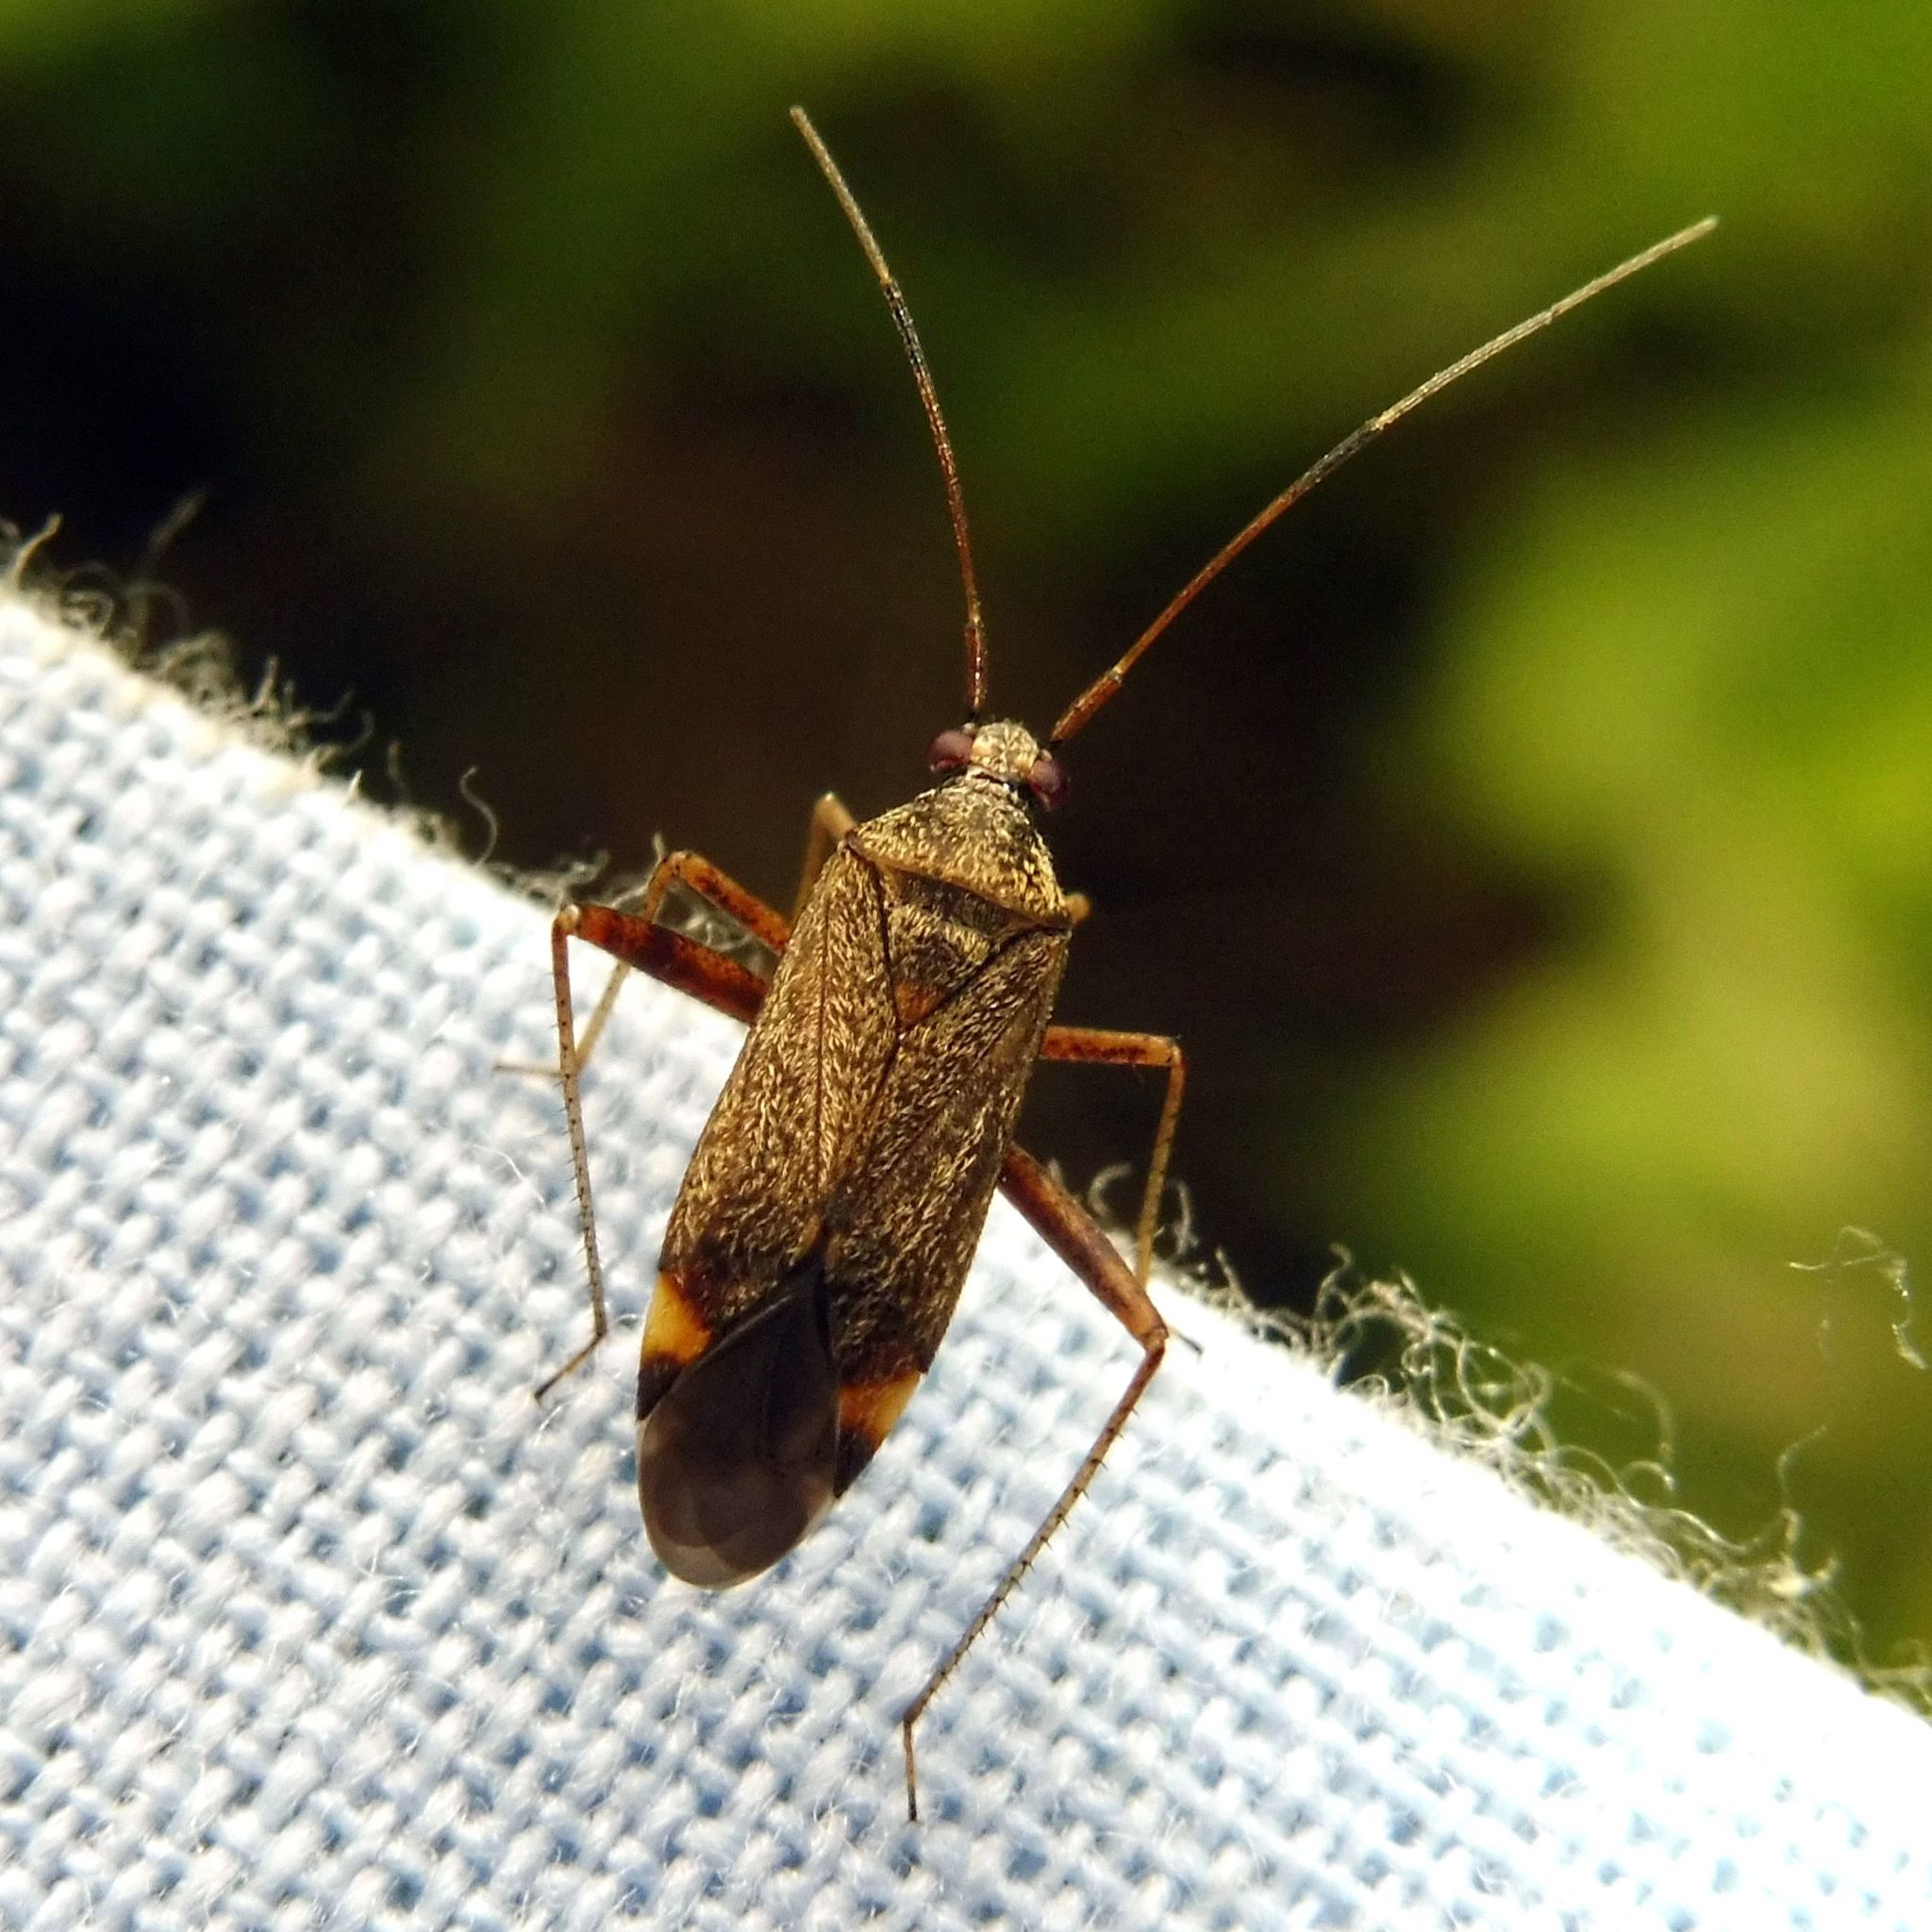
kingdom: Animalia
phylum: Arthropoda
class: Insecta
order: Hemiptera
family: Miridae
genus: Closterotomus
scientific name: Closterotomus fulvomaculatus
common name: Spotted plant bug
